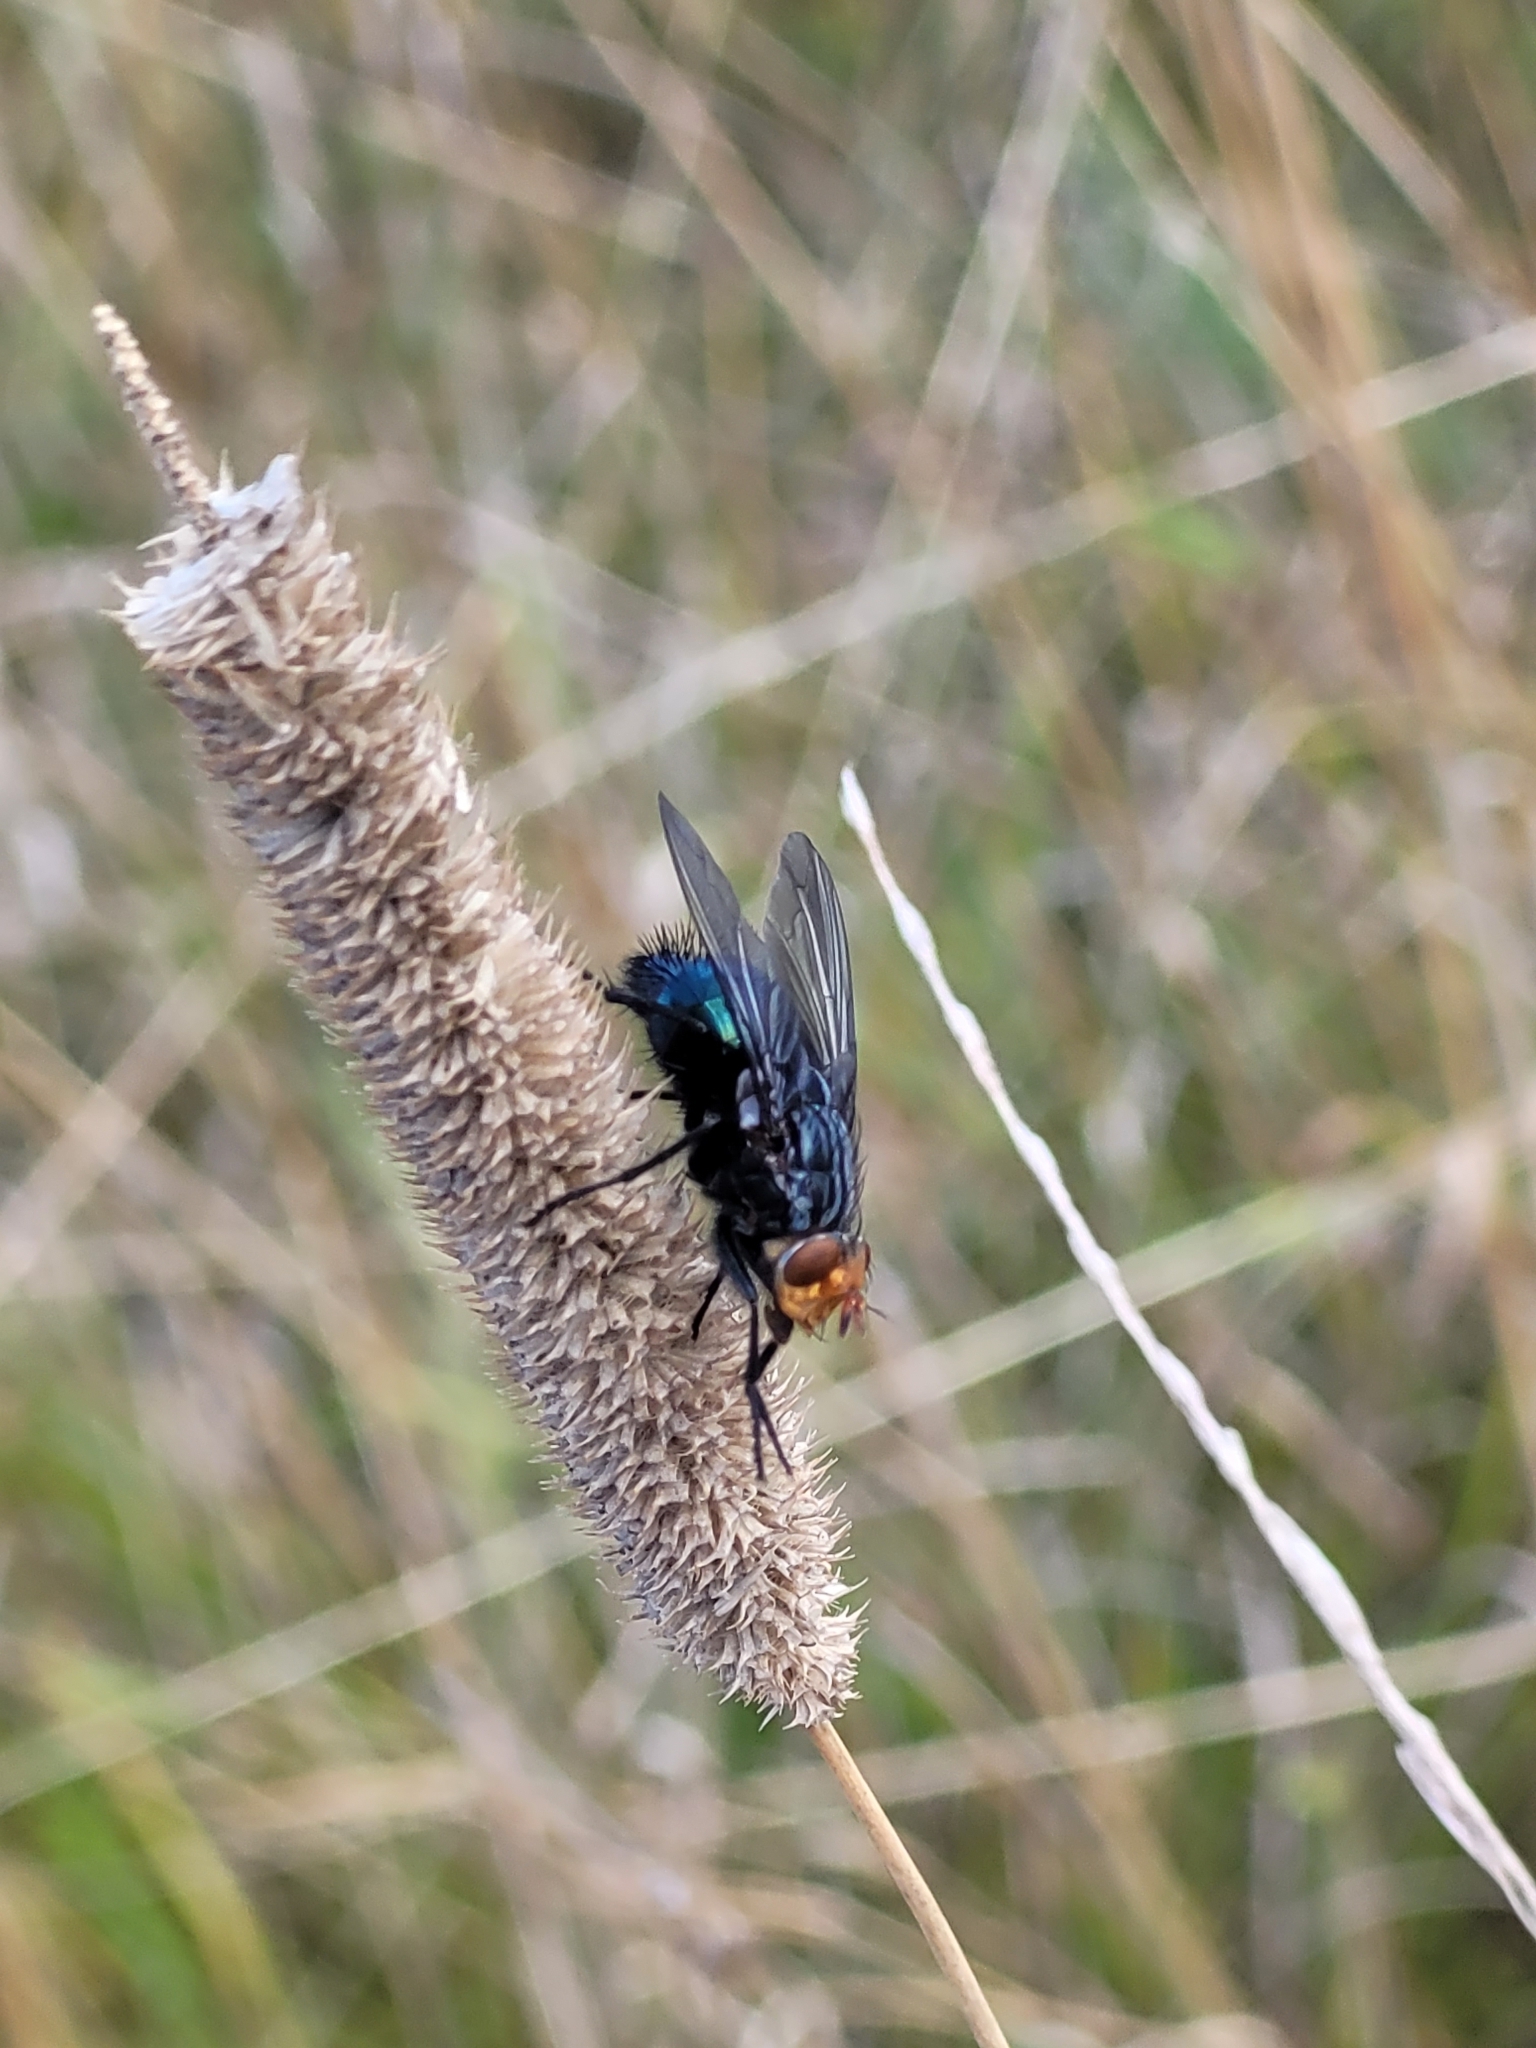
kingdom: Animalia
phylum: Arthropoda
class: Insecta
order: Diptera
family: Calliphoridae
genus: Cynomya
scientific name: Cynomya mortuorum
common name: Bluebottle blow fly
